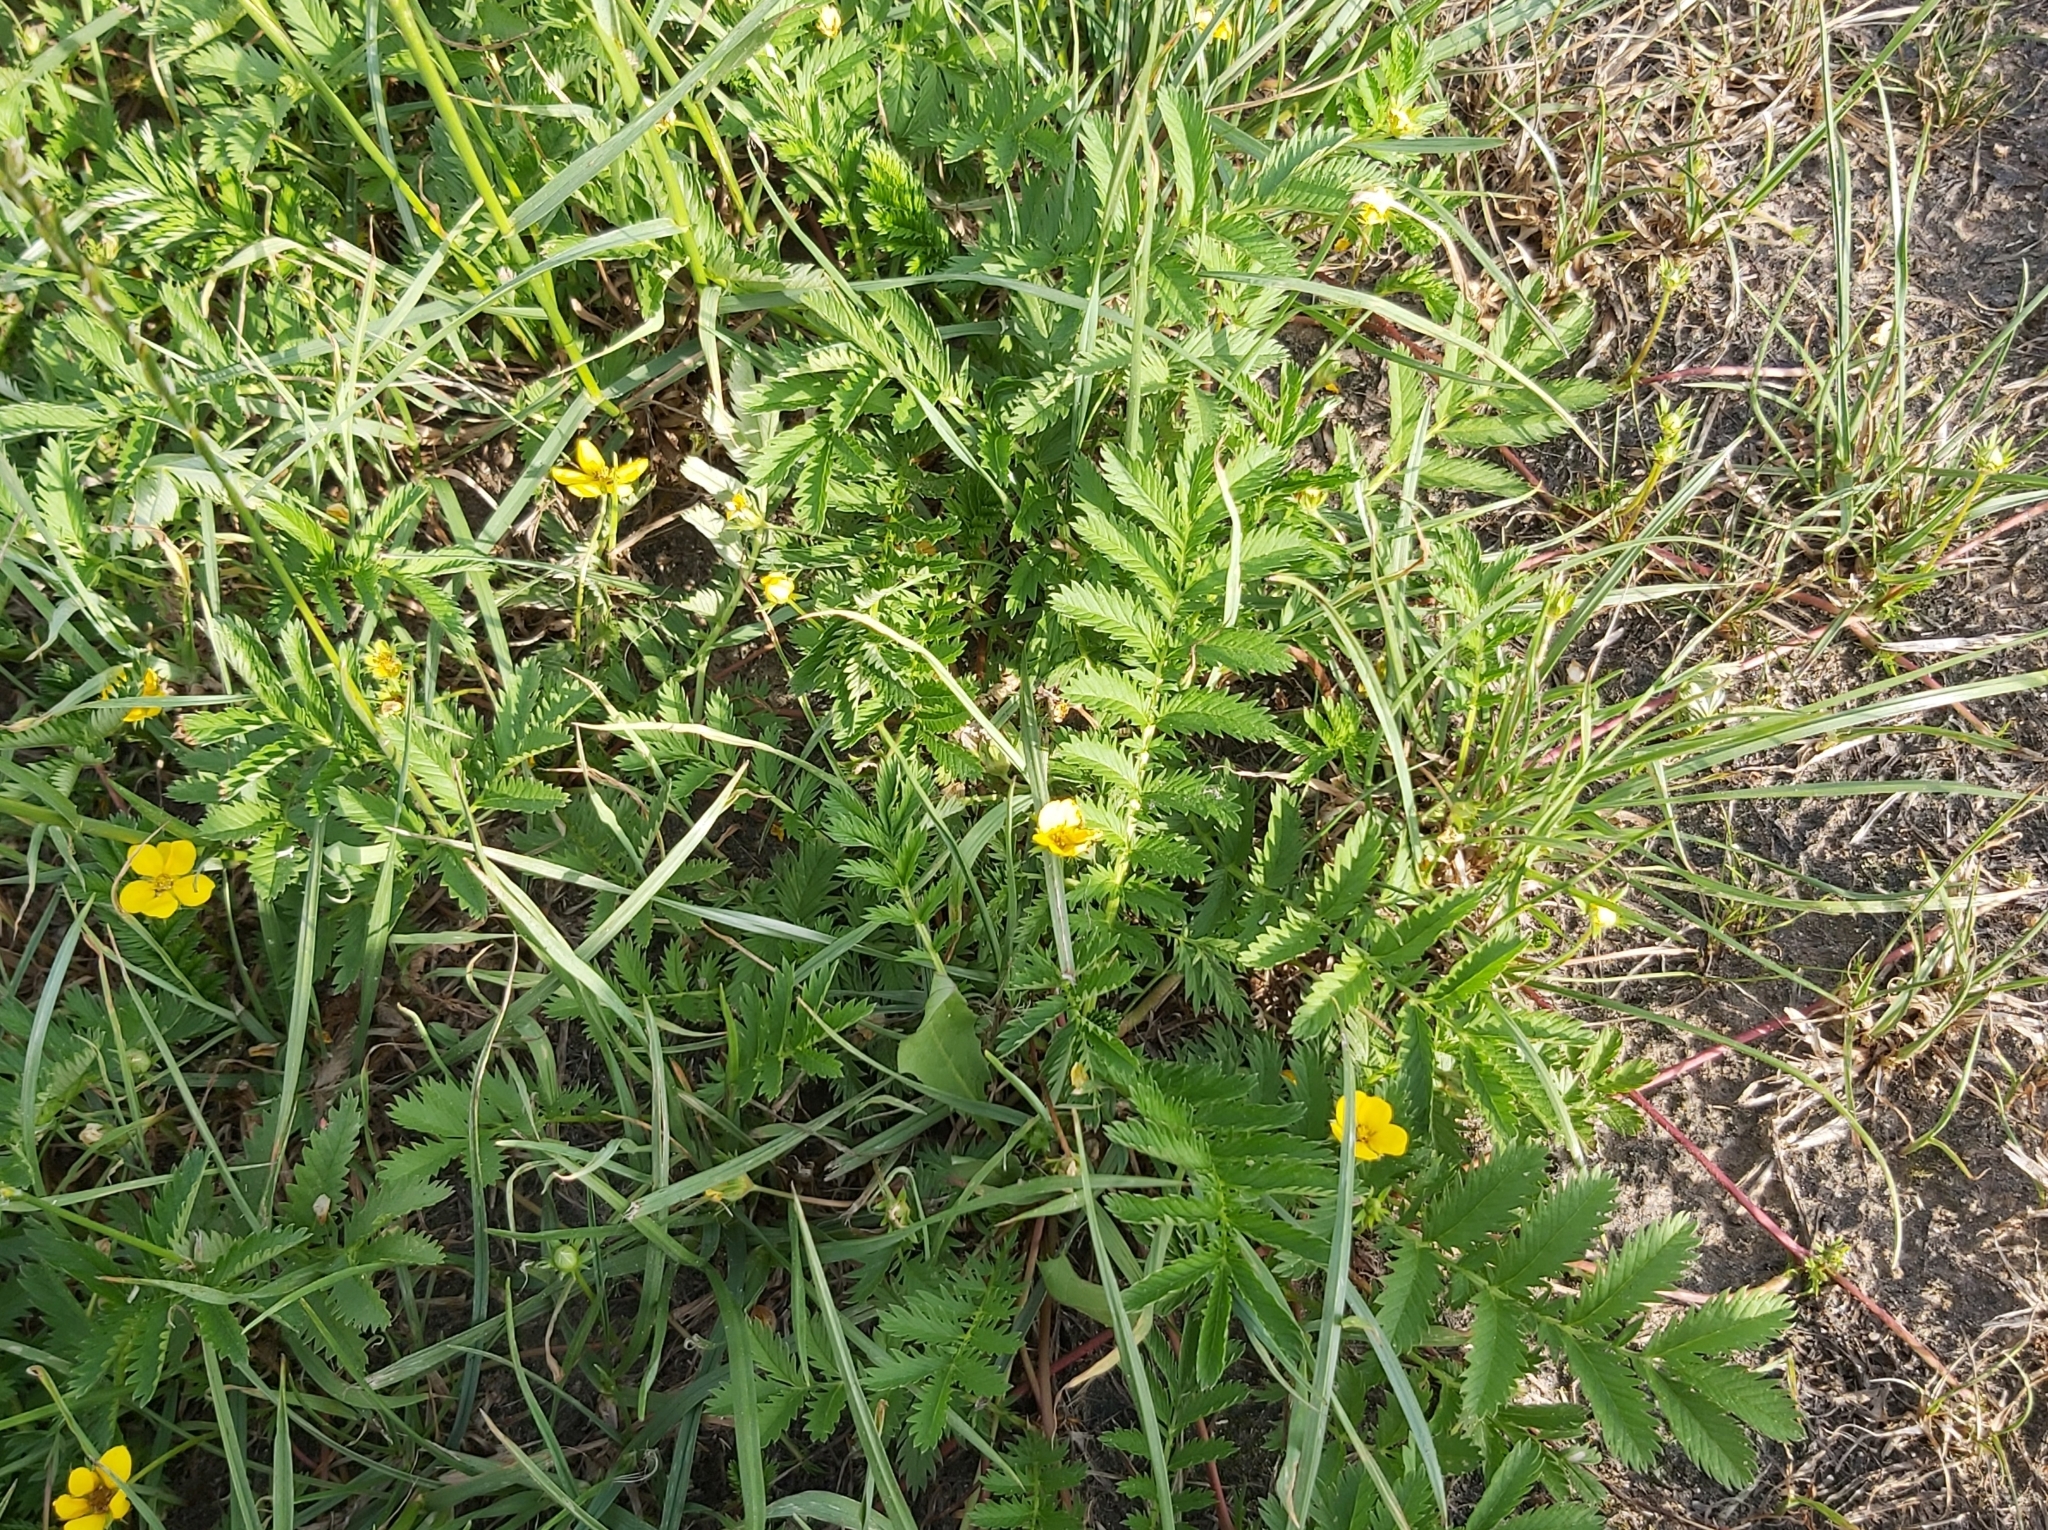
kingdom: Plantae
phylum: Tracheophyta
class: Magnoliopsida
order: Rosales
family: Rosaceae
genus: Argentina
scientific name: Argentina anserina
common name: Common silverweed
